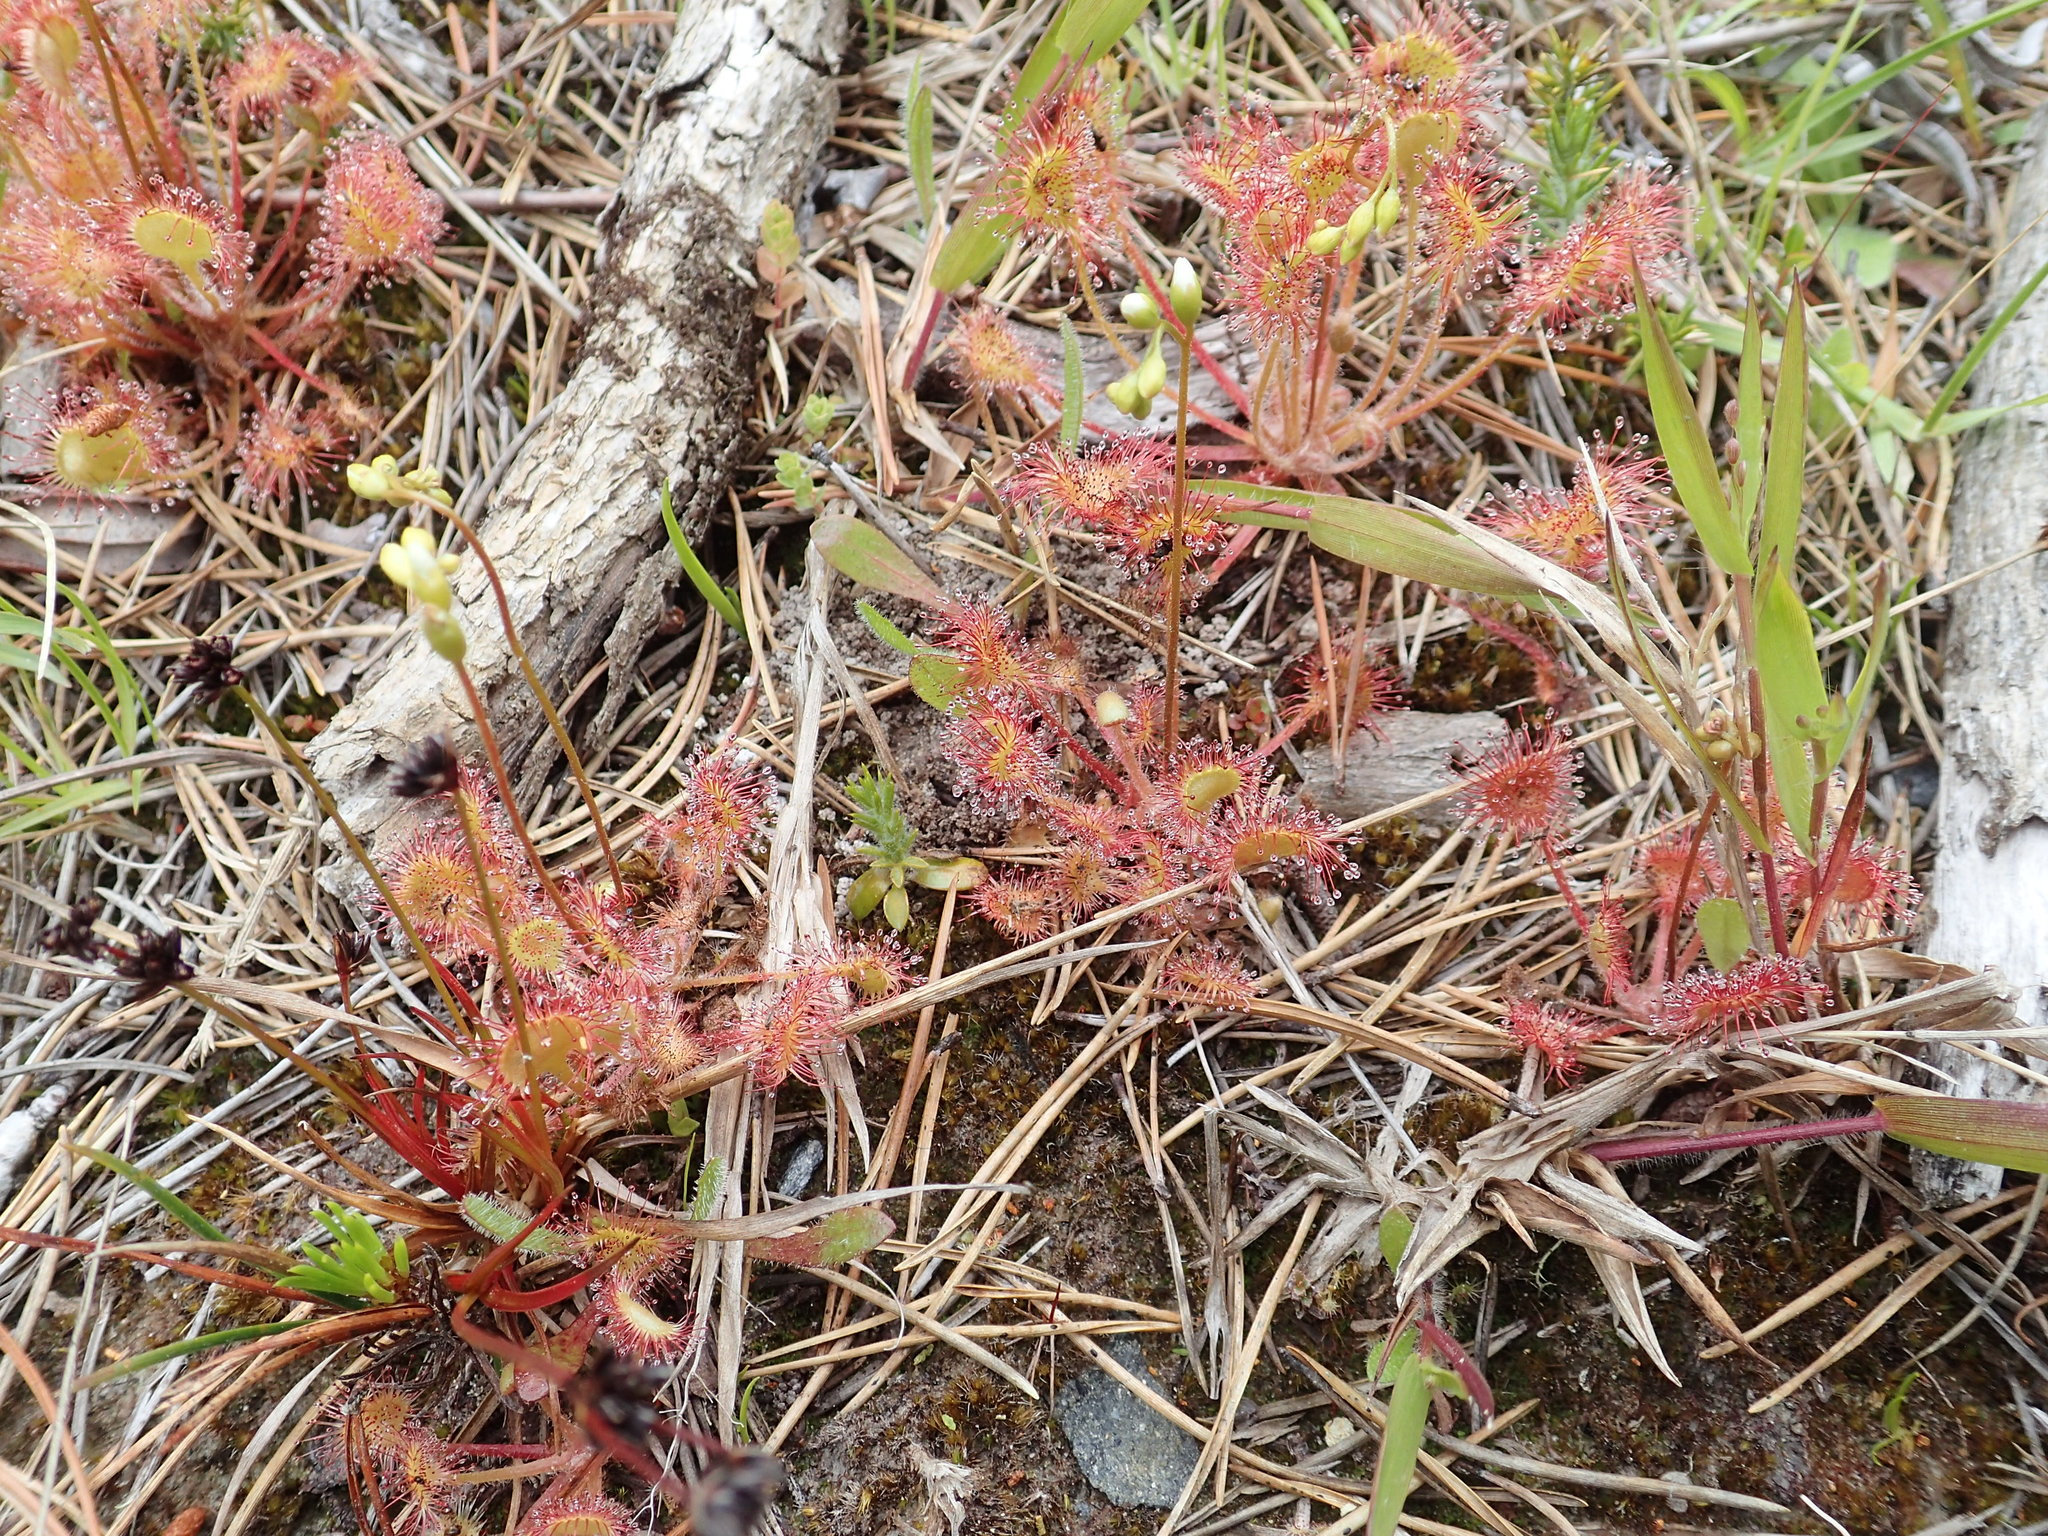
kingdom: Plantae
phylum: Tracheophyta
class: Magnoliopsida
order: Caryophyllales
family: Droseraceae
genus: Drosera
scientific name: Drosera rotundifolia
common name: Round-leaved sundew
